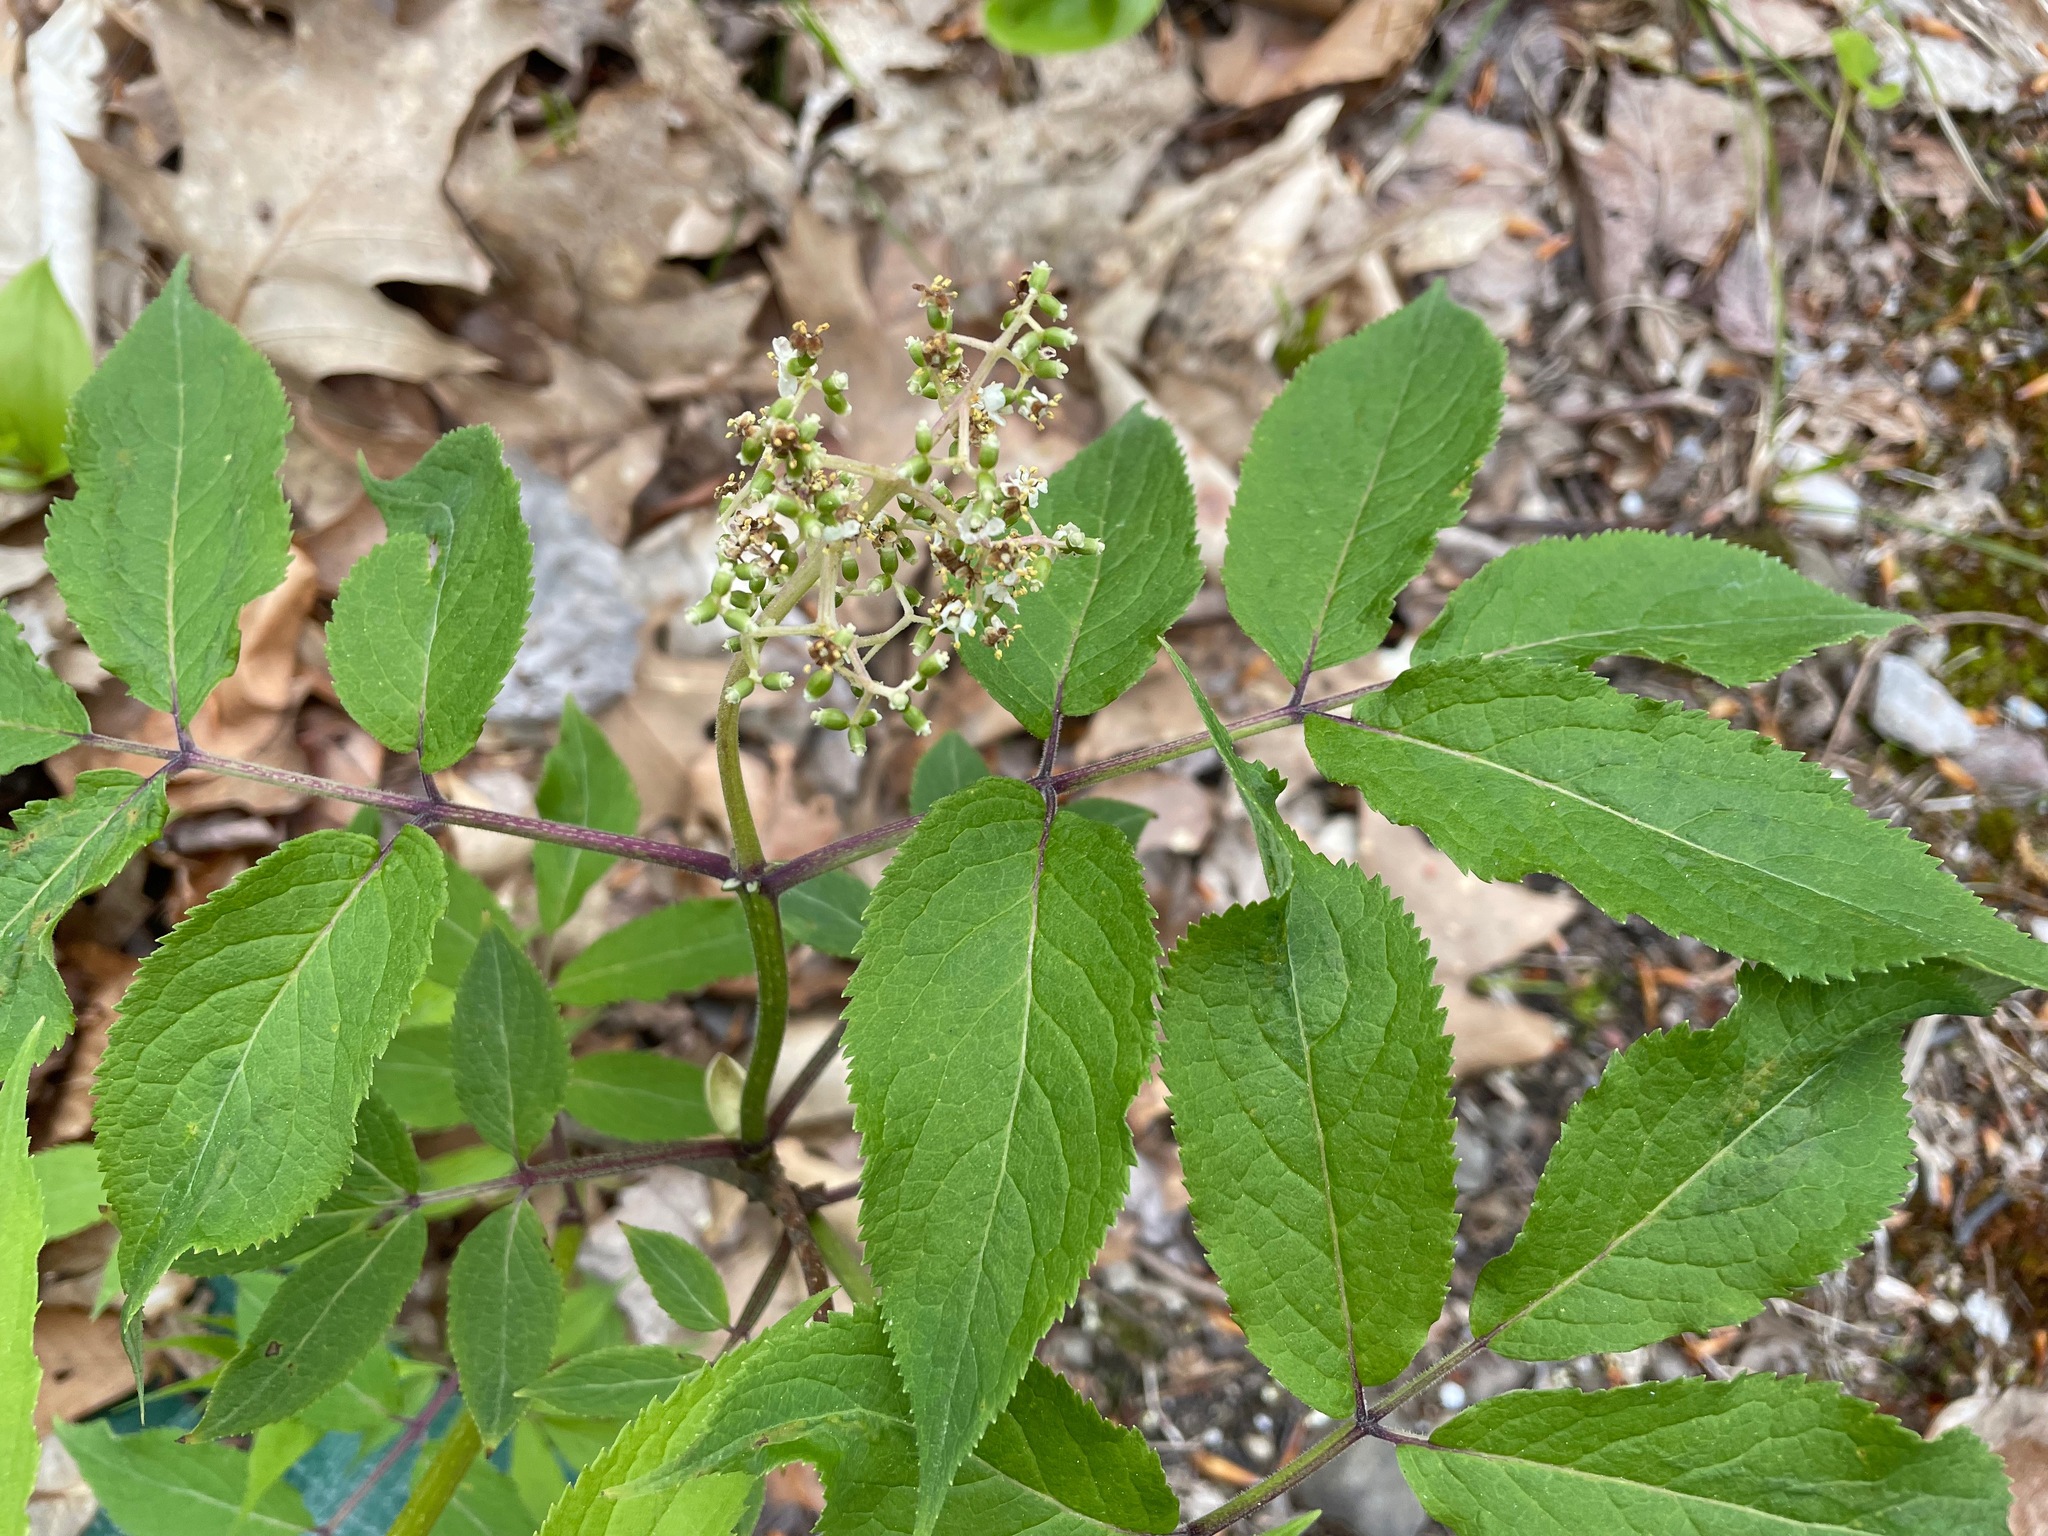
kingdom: Plantae
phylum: Tracheophyta
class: Magnoliopsida
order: Dipsacales
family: Viburnaceae
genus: Sambucus
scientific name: Sambucus racemosa
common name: Red-berried elder
